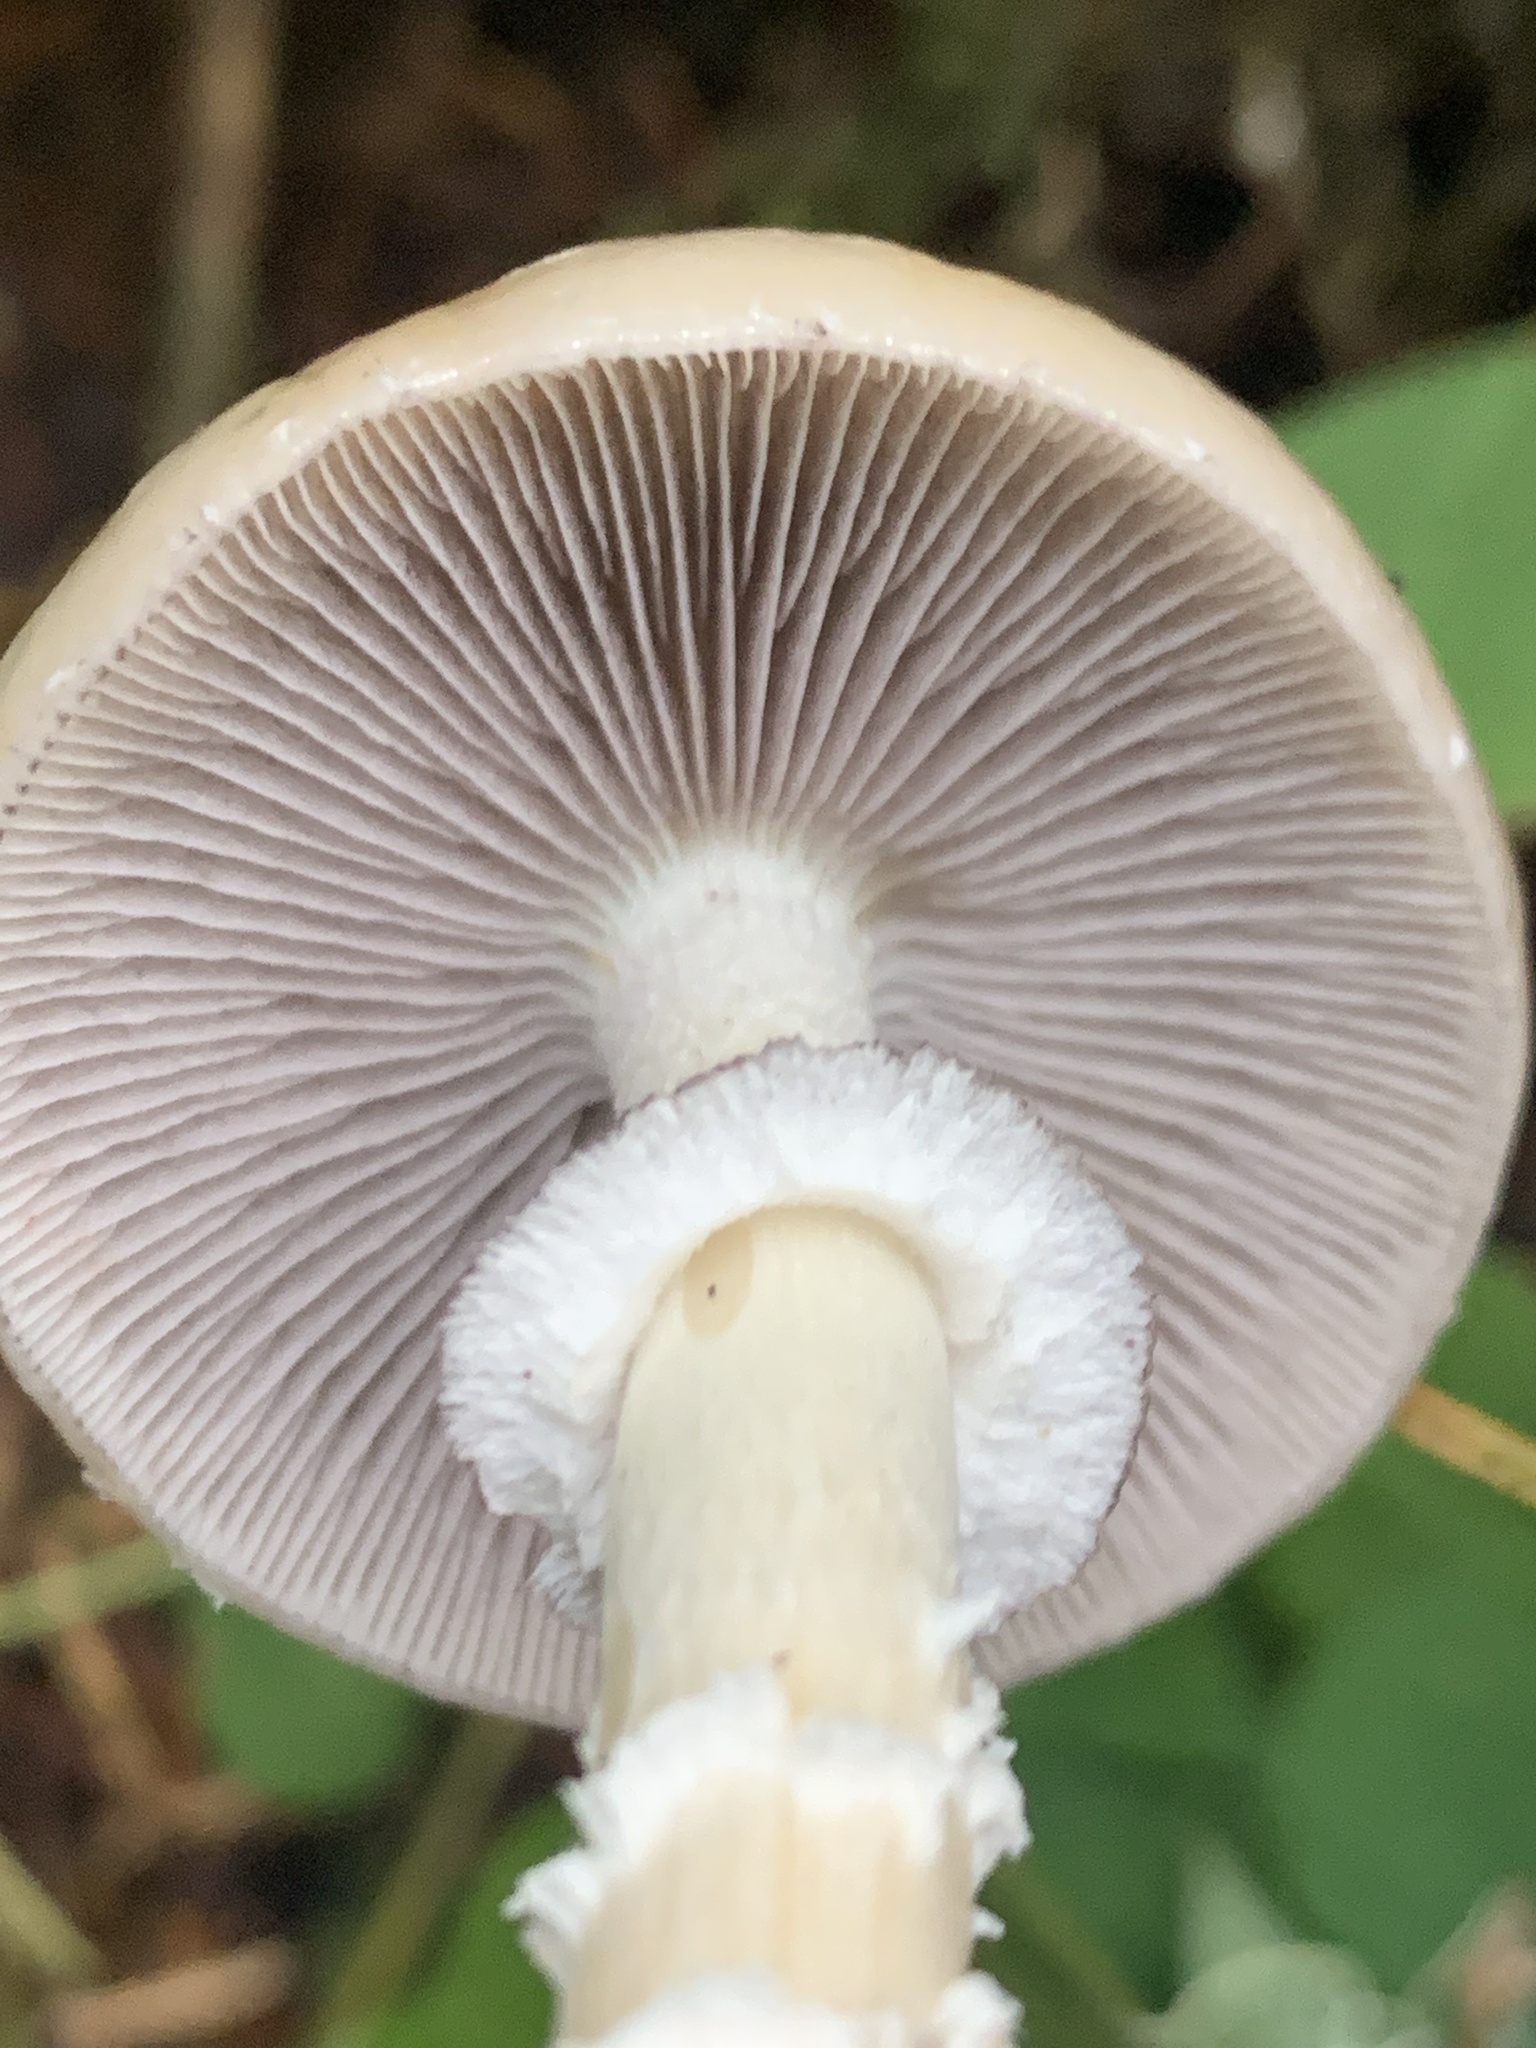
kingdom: Fungi
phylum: Basidiomycota
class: Agaricomycetes
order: Agaricales
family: Strophariaceae
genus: Stropharia
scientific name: Stropharia hornemannii
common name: Conifer roundhead
